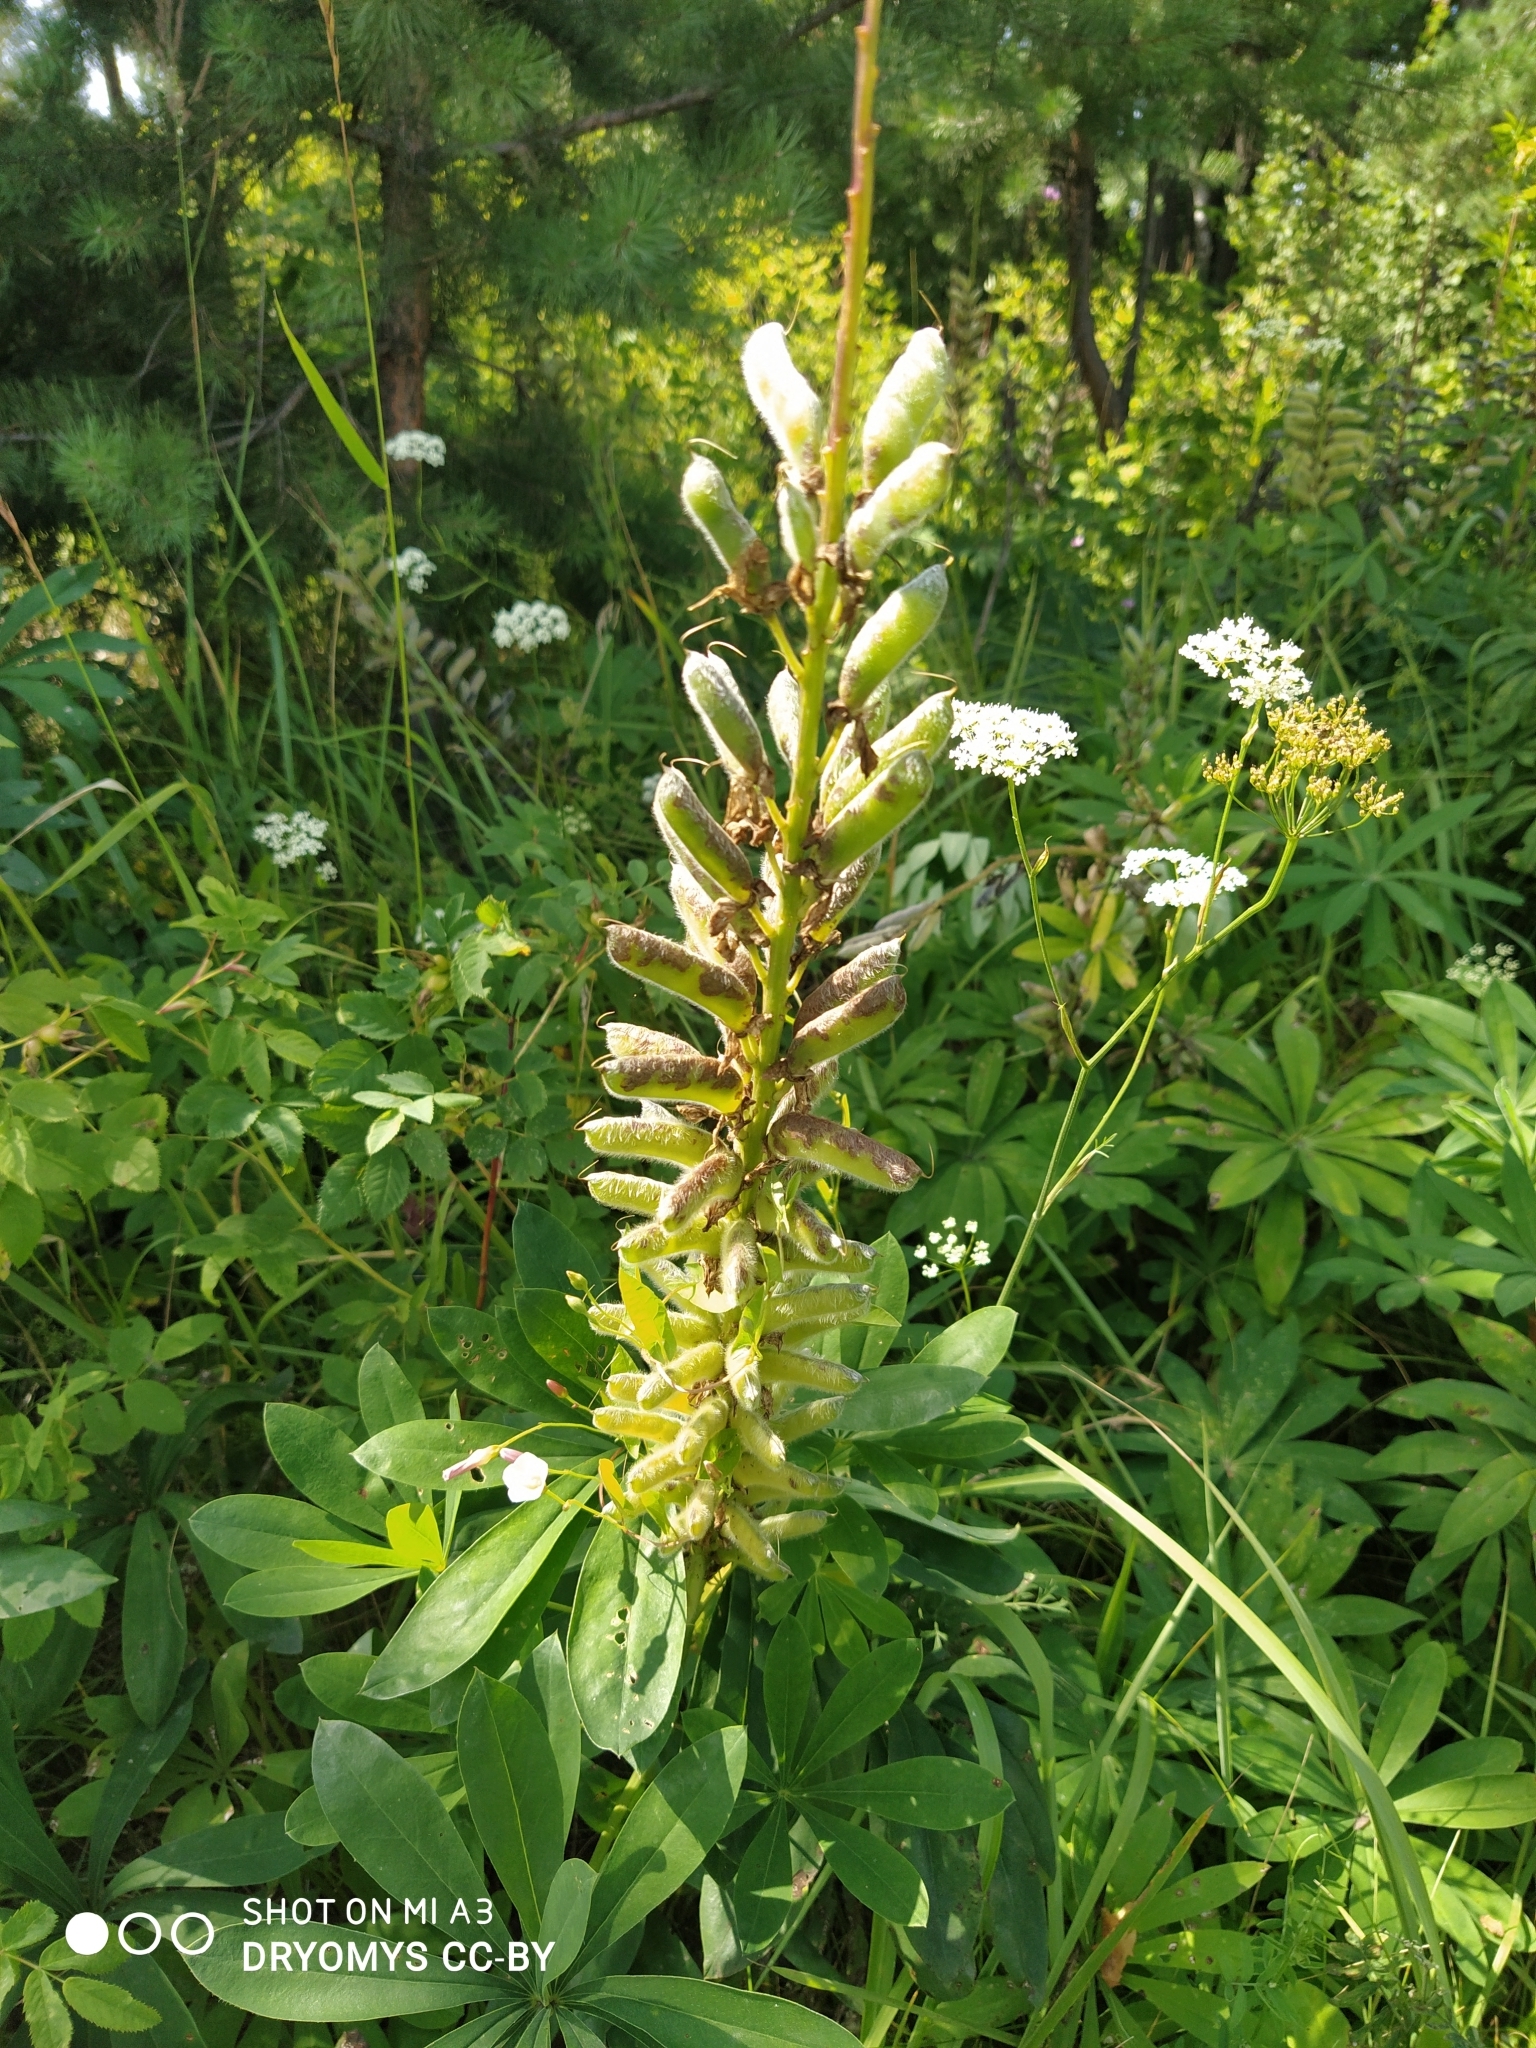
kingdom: Plantae
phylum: Tracheophyta
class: Magnoliopsida
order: Fabales
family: Fabaceae
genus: Lupinus
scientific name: Lupinus polyphyllus
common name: Garden lupin
